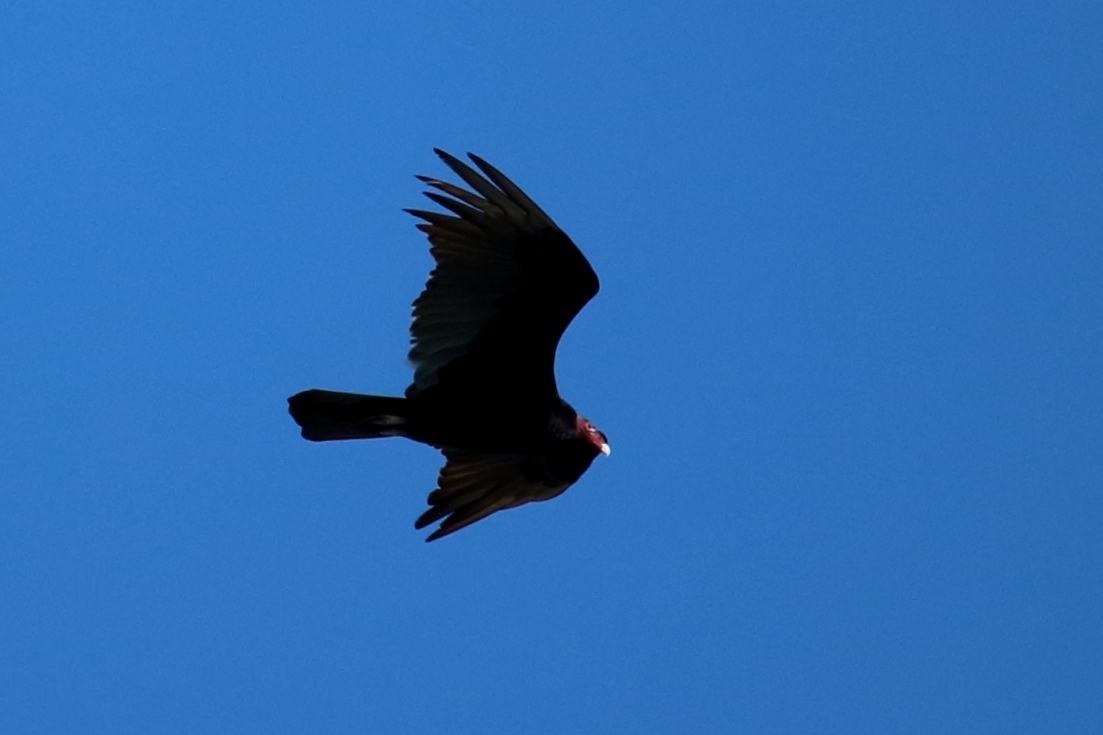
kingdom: Animalia
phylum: Chordata
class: Aves
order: Accipitriformes
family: Cathartidae
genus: Cathartes
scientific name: Cathartes aura
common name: Turkey vulture
